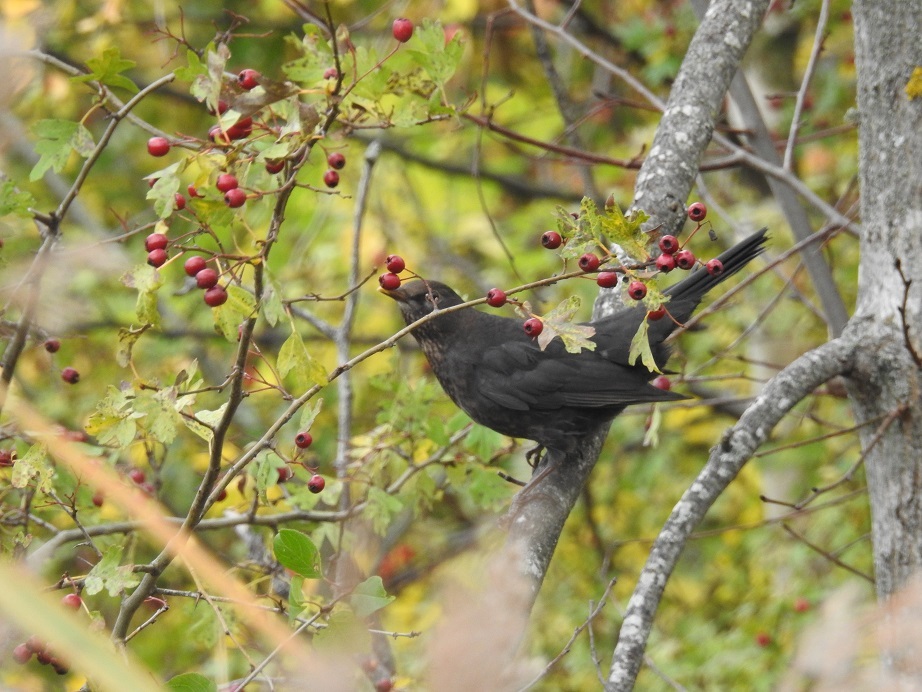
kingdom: Animalia
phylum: Chordata
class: Aves
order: Passeriformes
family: Turdidae
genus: Turdus
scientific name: Turdus merula
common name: Common blackbird
